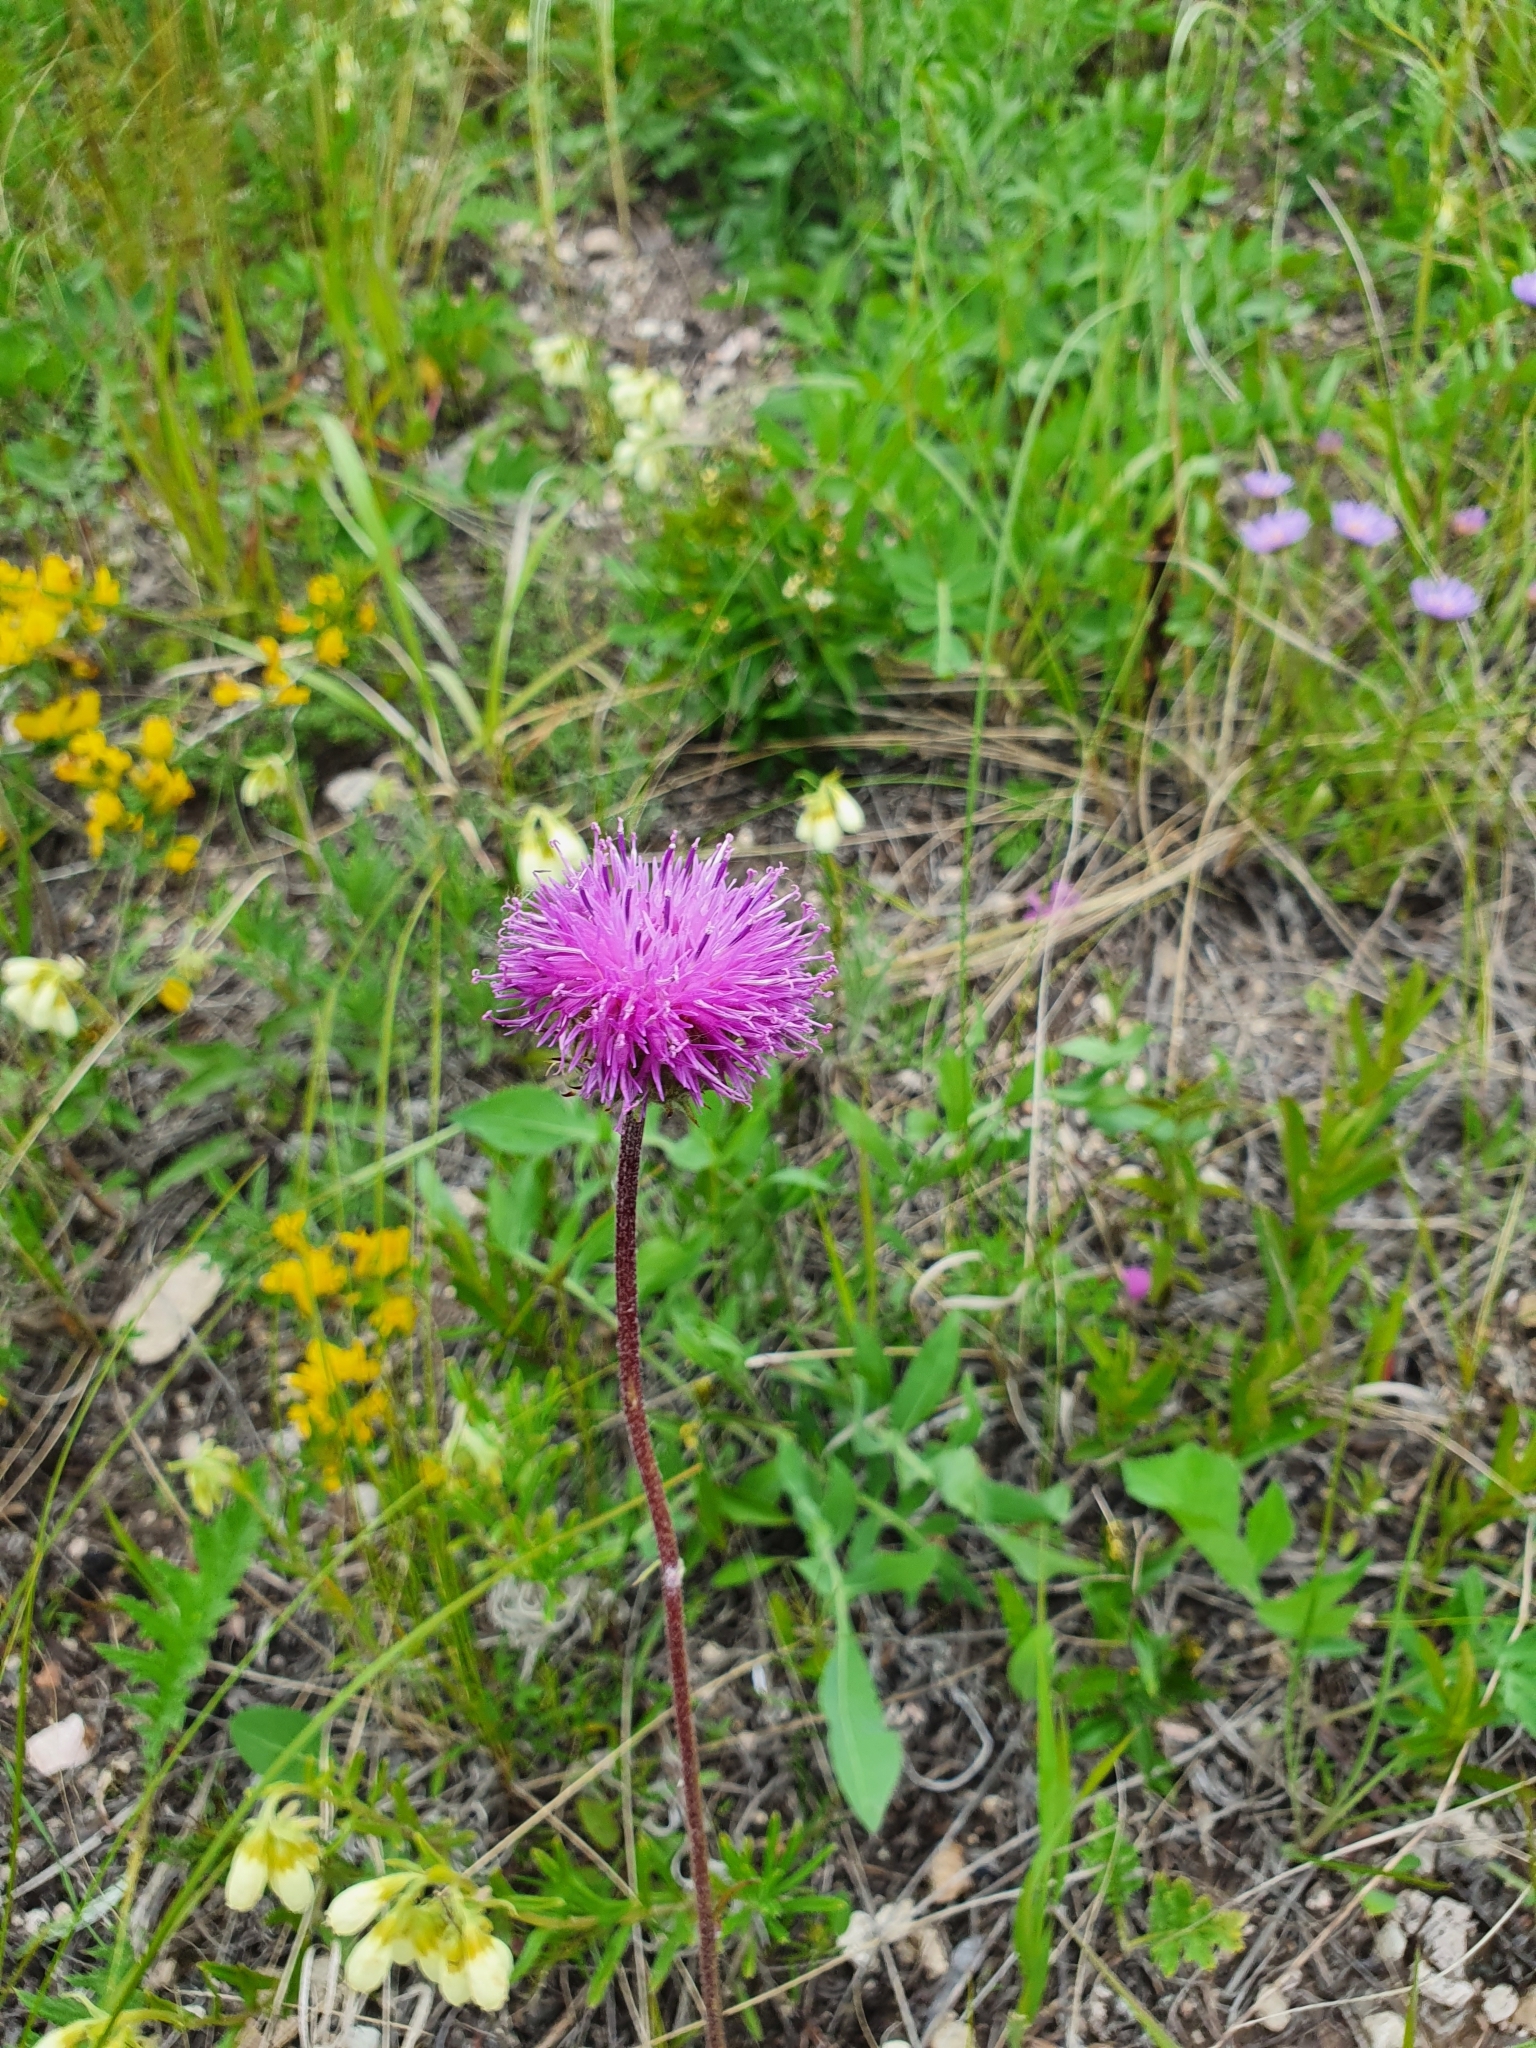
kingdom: Plantae
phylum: Tracheophyta
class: Magnoliopsida
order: Asterales
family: Asteraceae
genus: Jurinea
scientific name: Jurinea ledebourii
